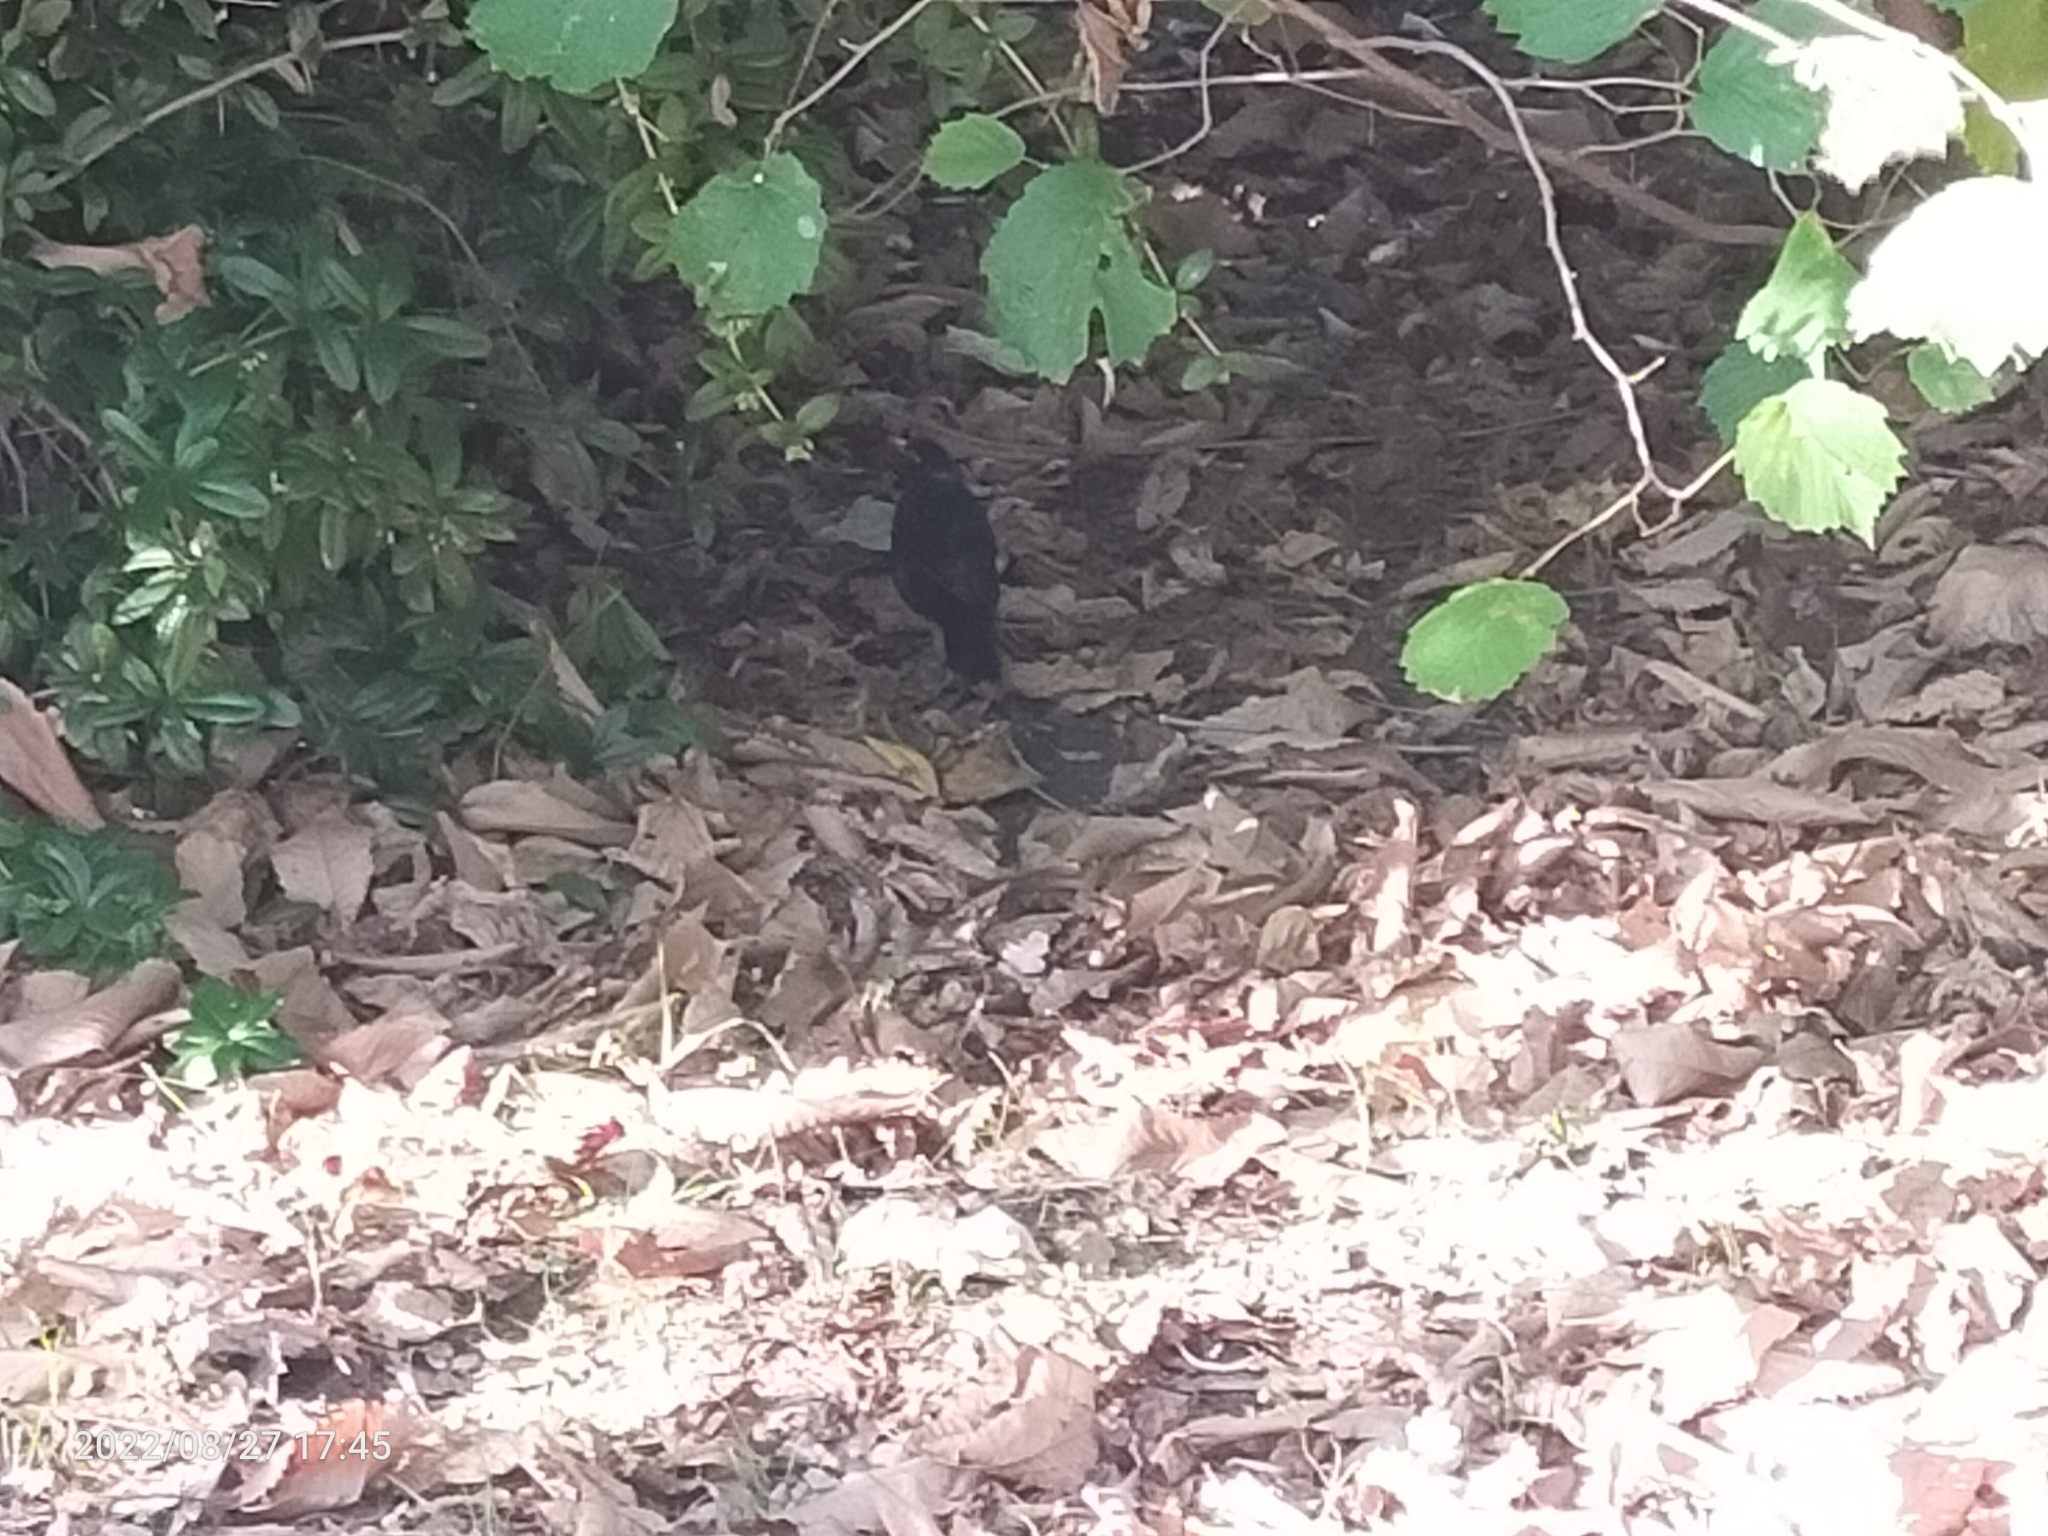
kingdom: Animalia
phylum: Chordata
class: Aves
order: Passeriformes
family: Turdidae
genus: Turdus
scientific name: Turdus merula
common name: Common blackbird
